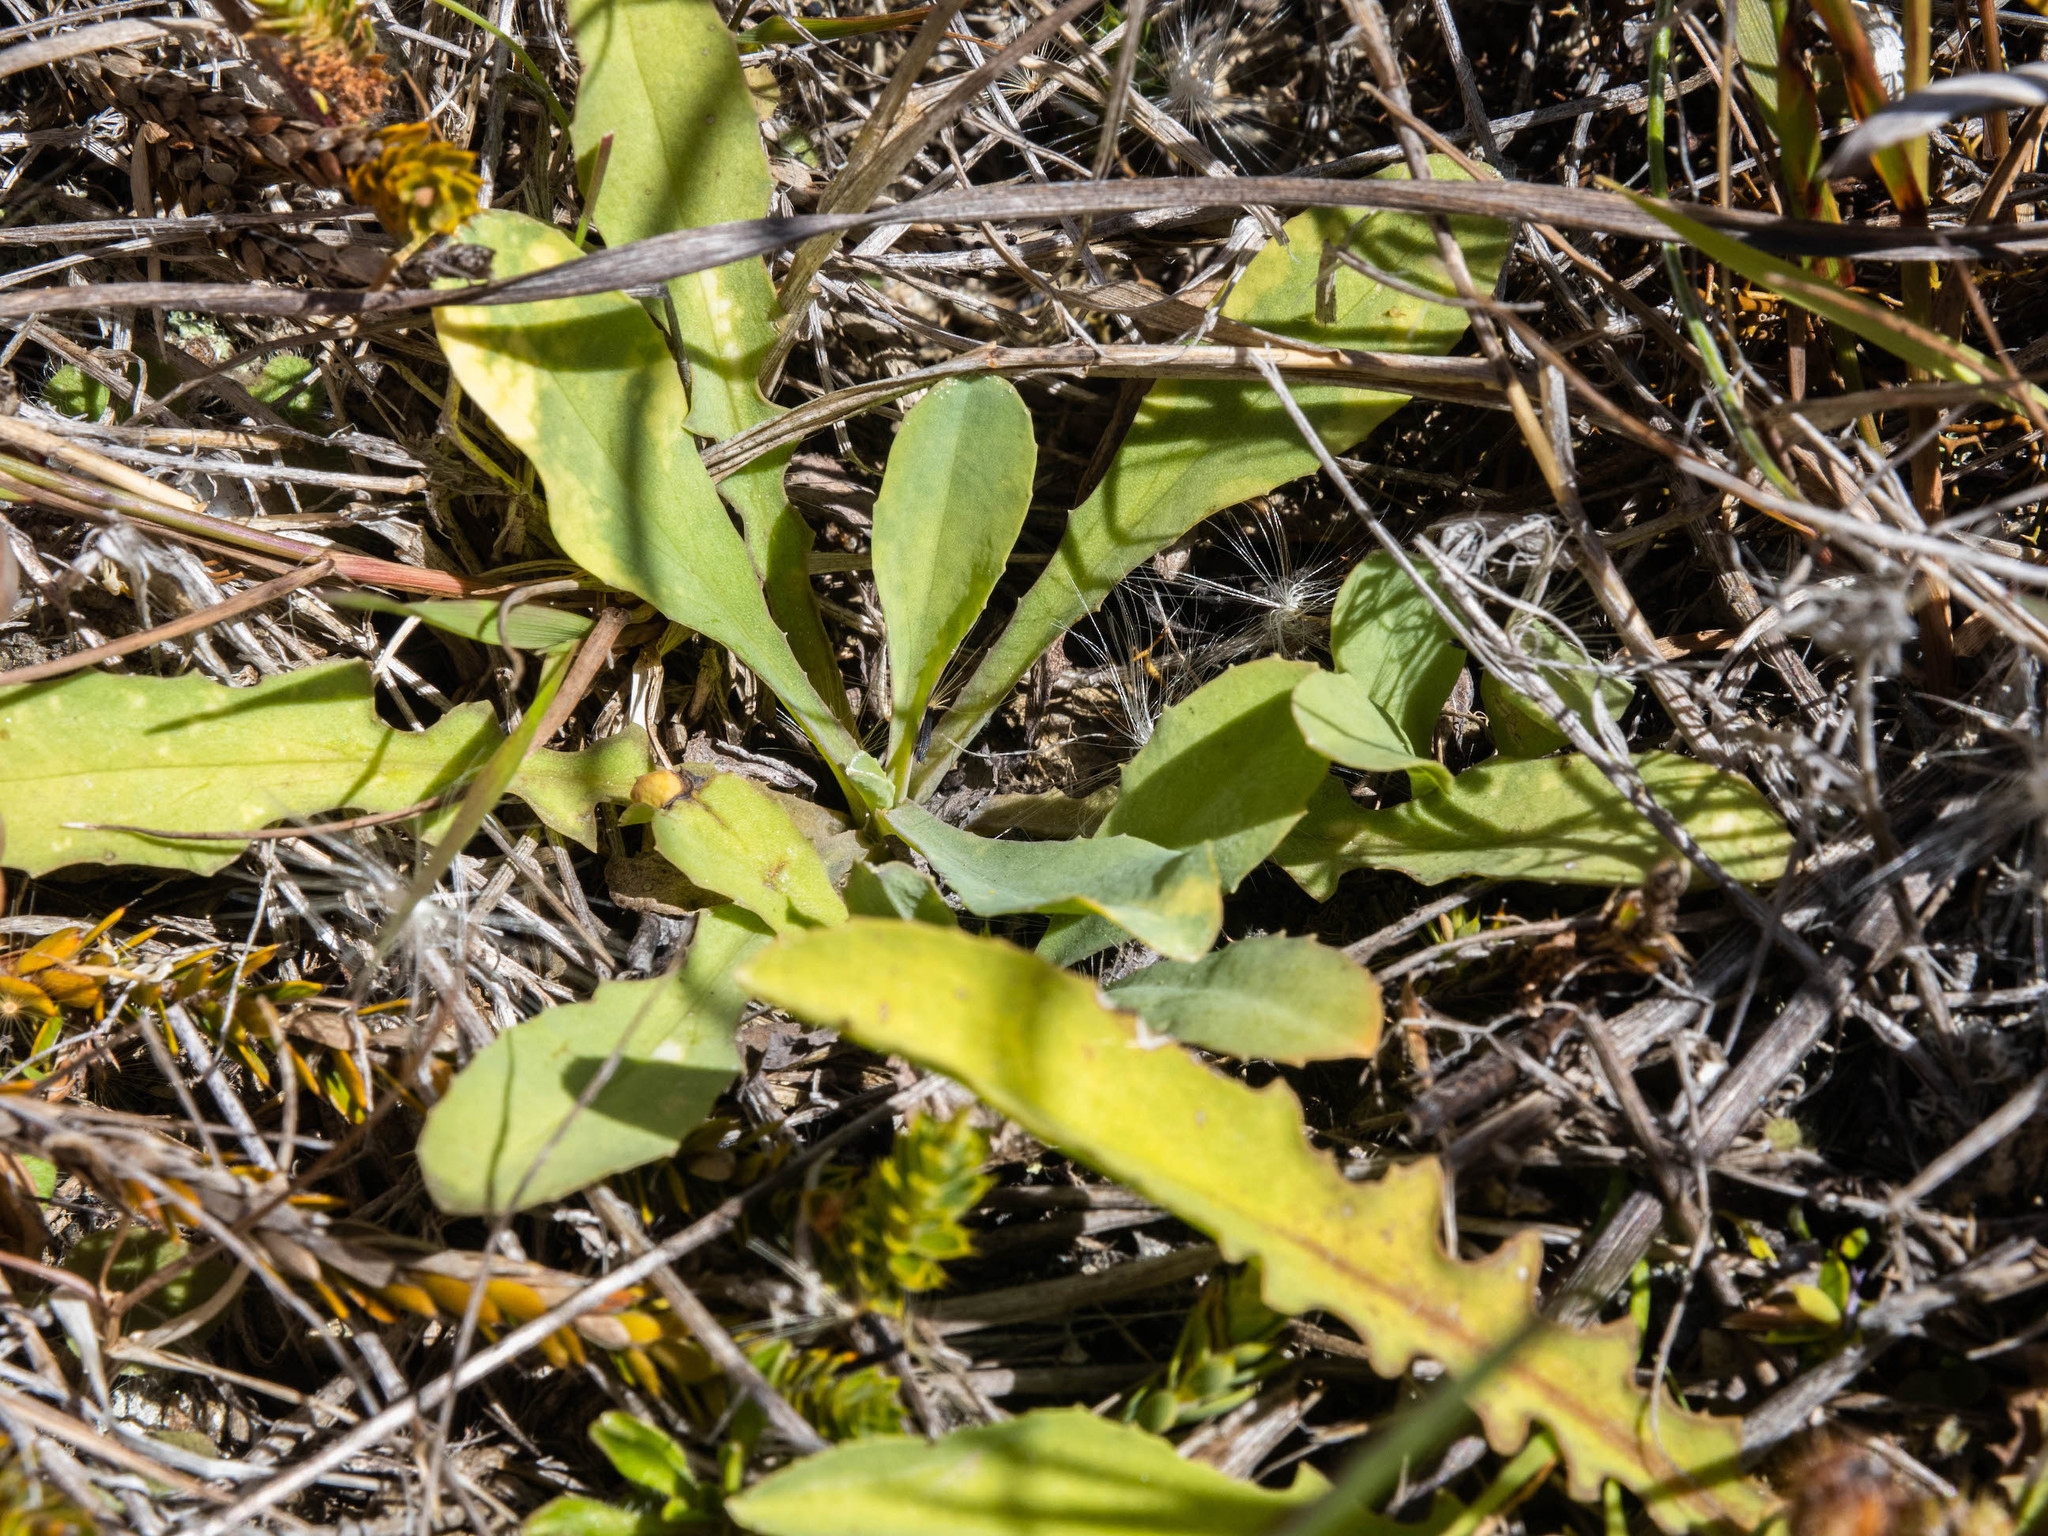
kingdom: Plantae
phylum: Tracheophyta
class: Magnoliopsida
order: Asterales
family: Asteraceae
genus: Sonchus
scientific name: Sonchus novae-zelandiae
